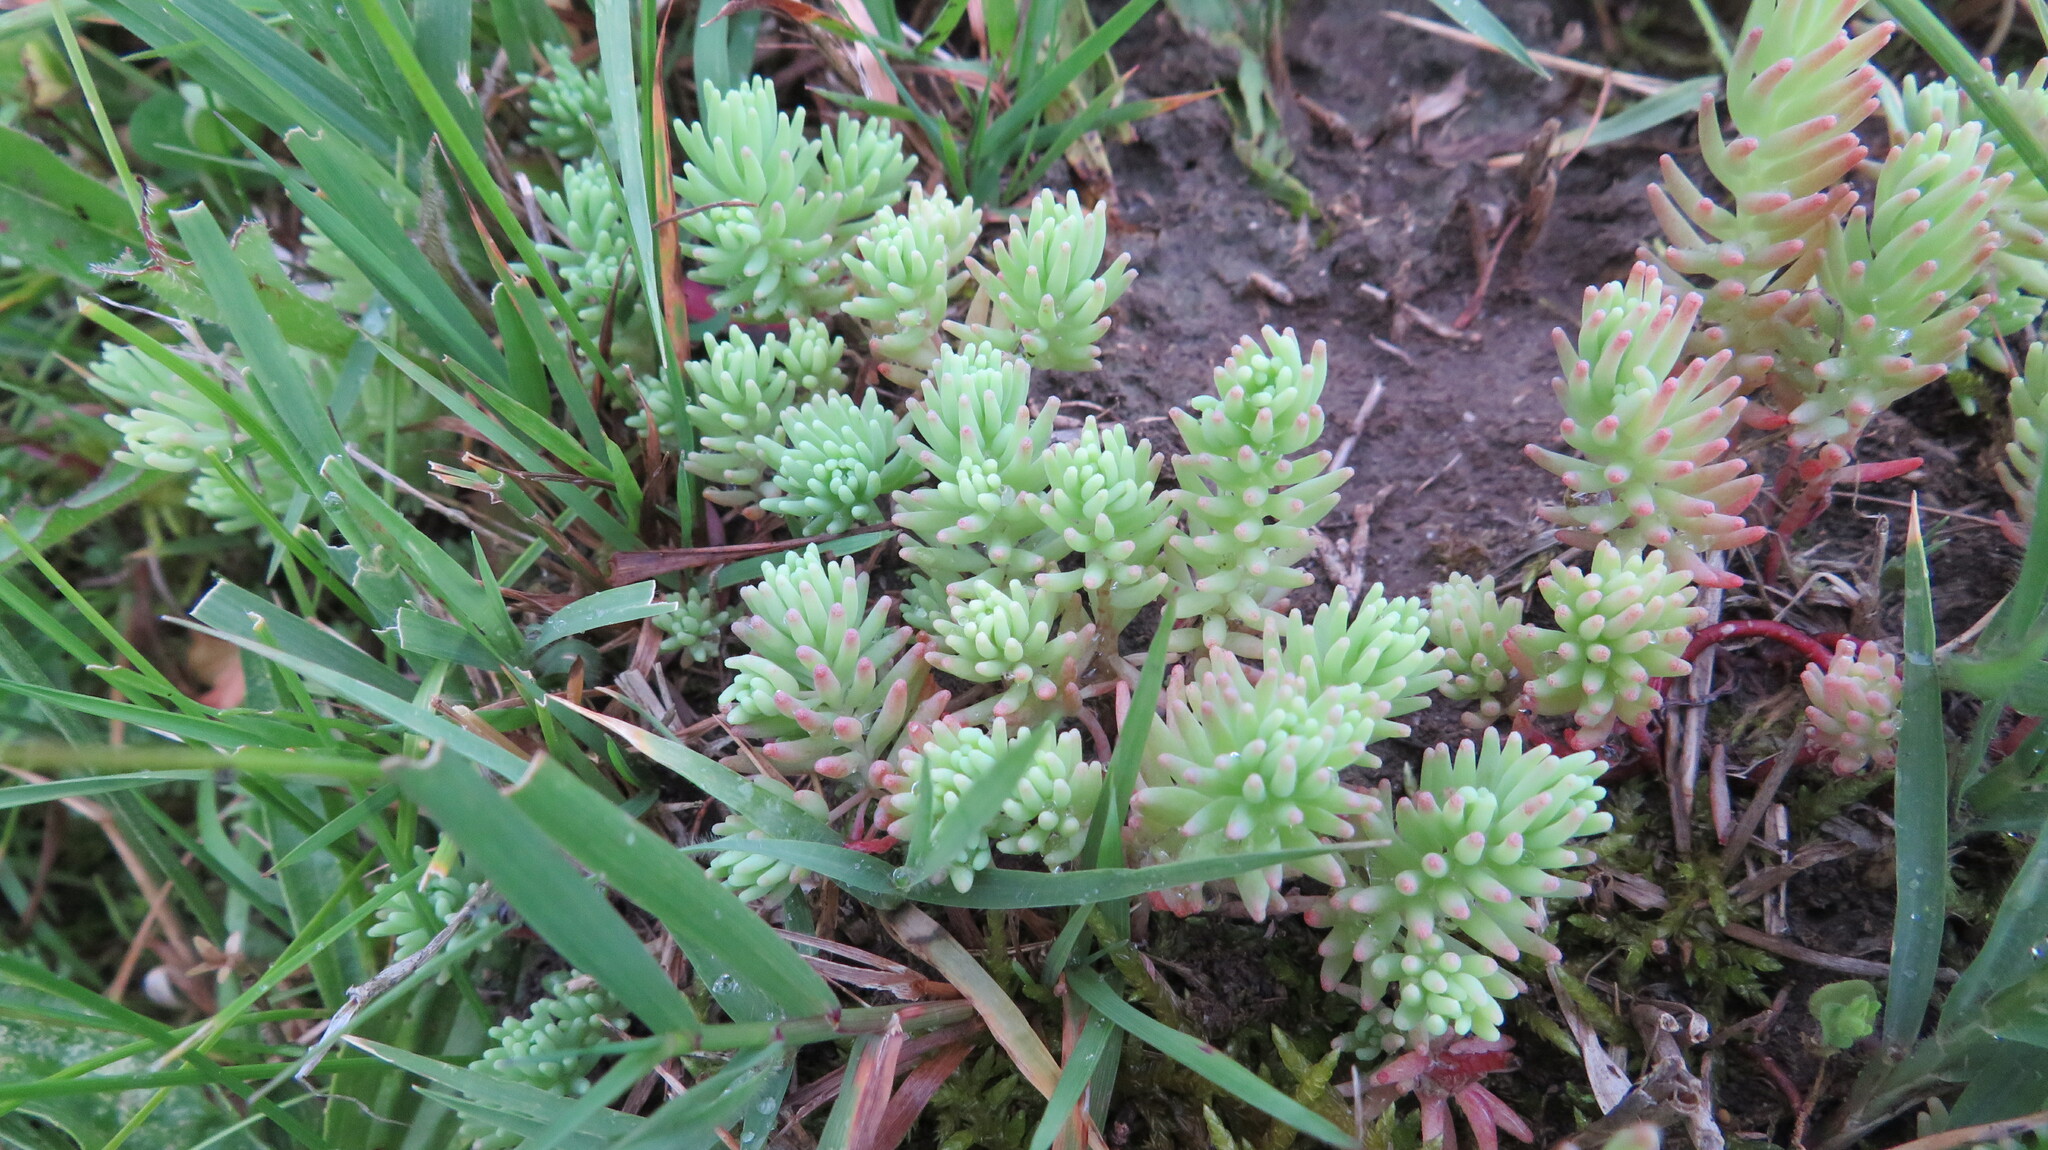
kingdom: Plantae
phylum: Tracheophyta
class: Magnoliopsida
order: Saxifragales
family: Crassulaceae
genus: Sedum
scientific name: Sedum pallidum
